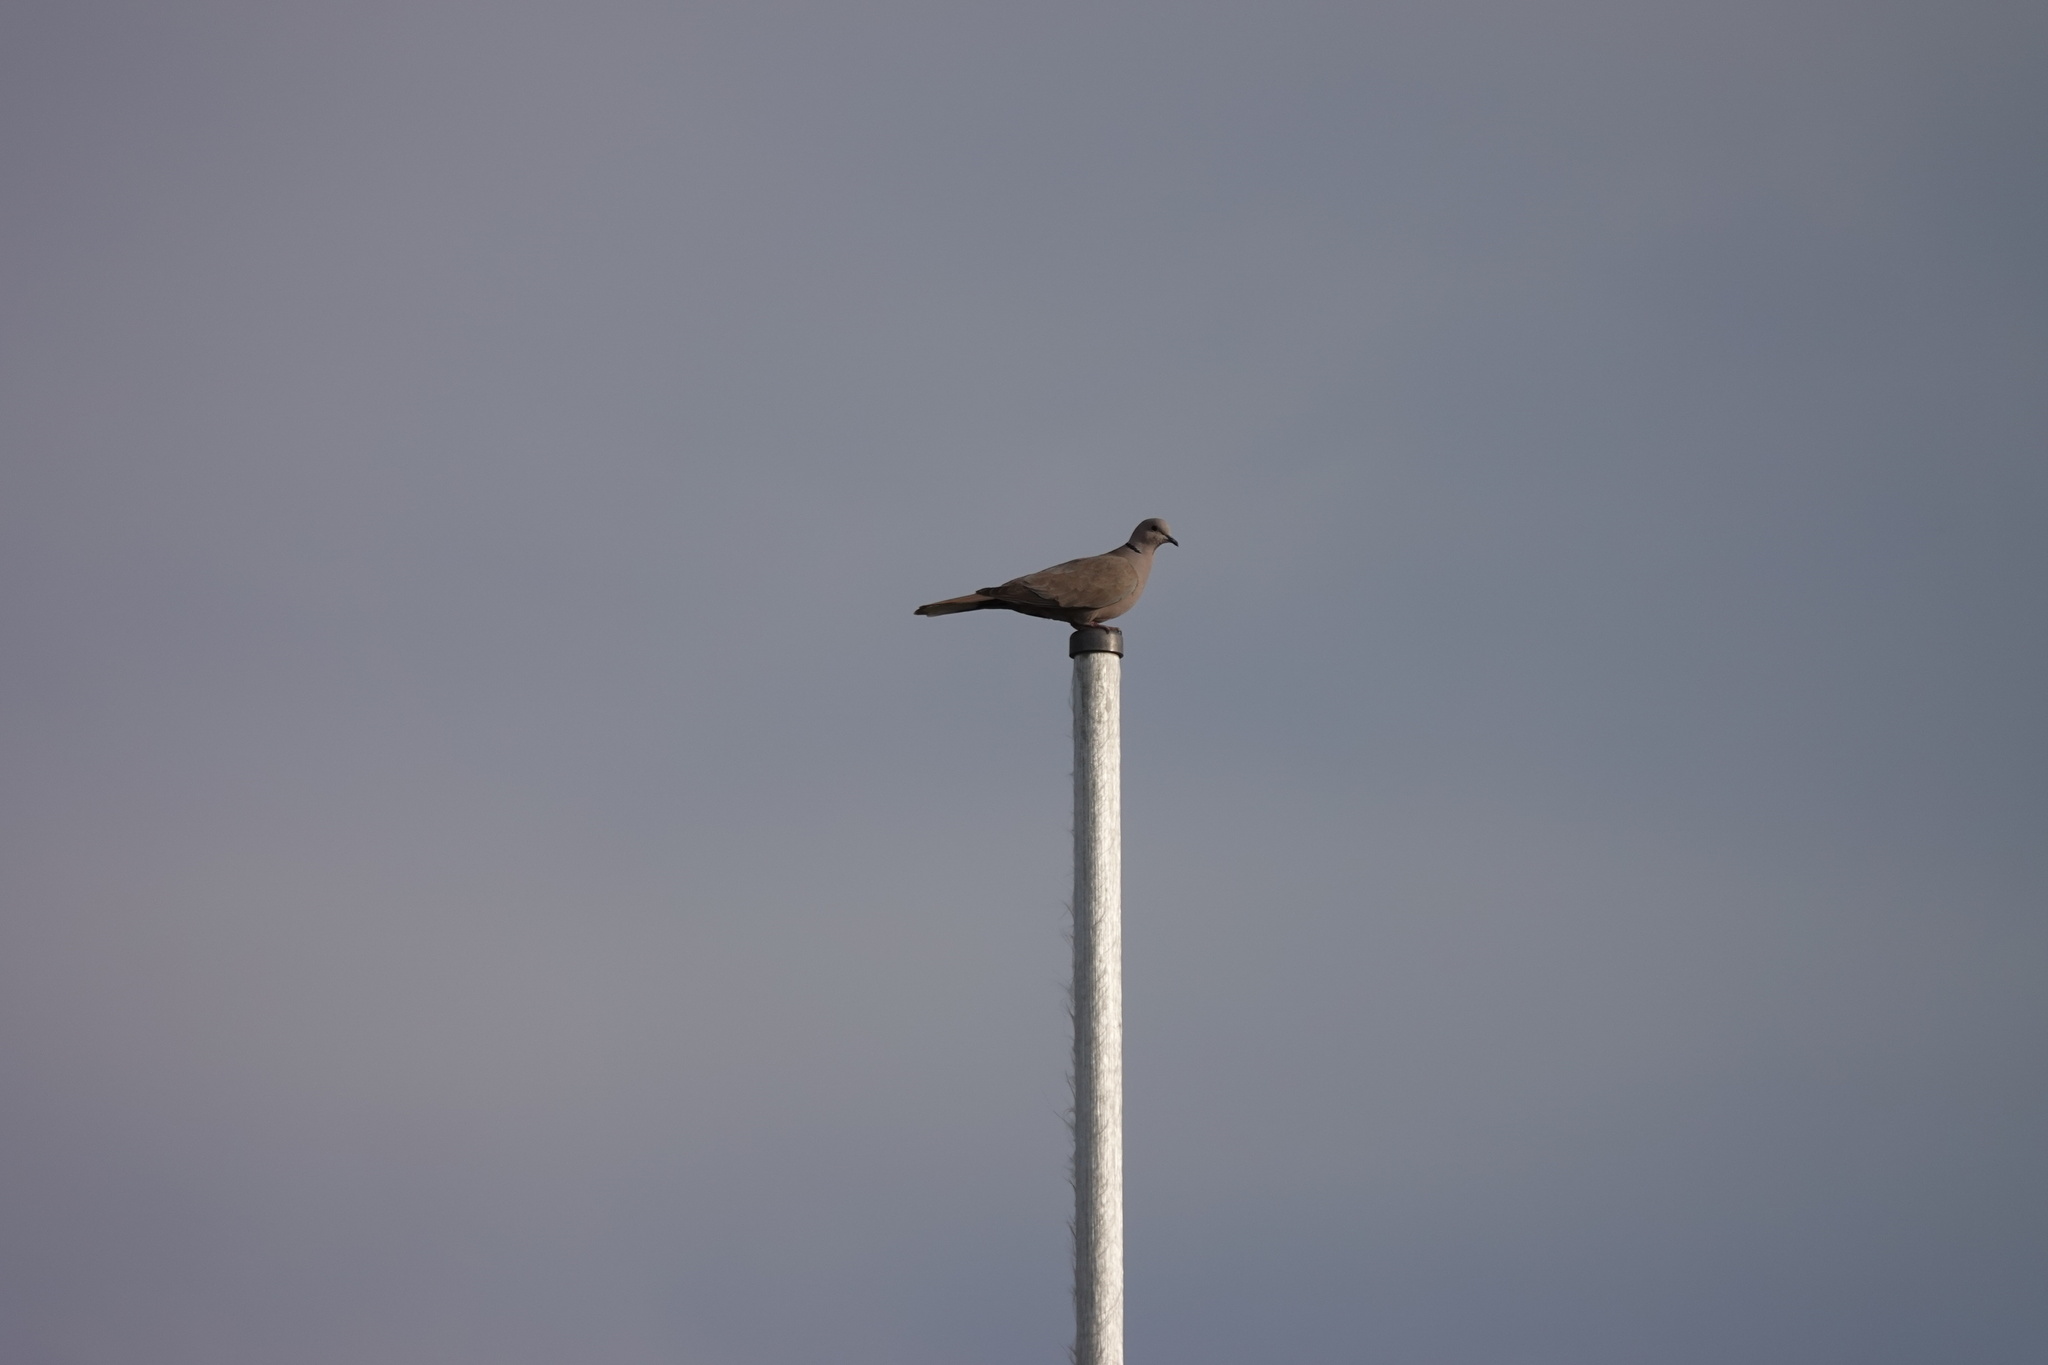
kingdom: Animalia
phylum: Chordata
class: Aves
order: Columbiformes
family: Columbidae
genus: Streptopelia
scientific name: Streptopelia decaocto
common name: Eurasian collared dove
